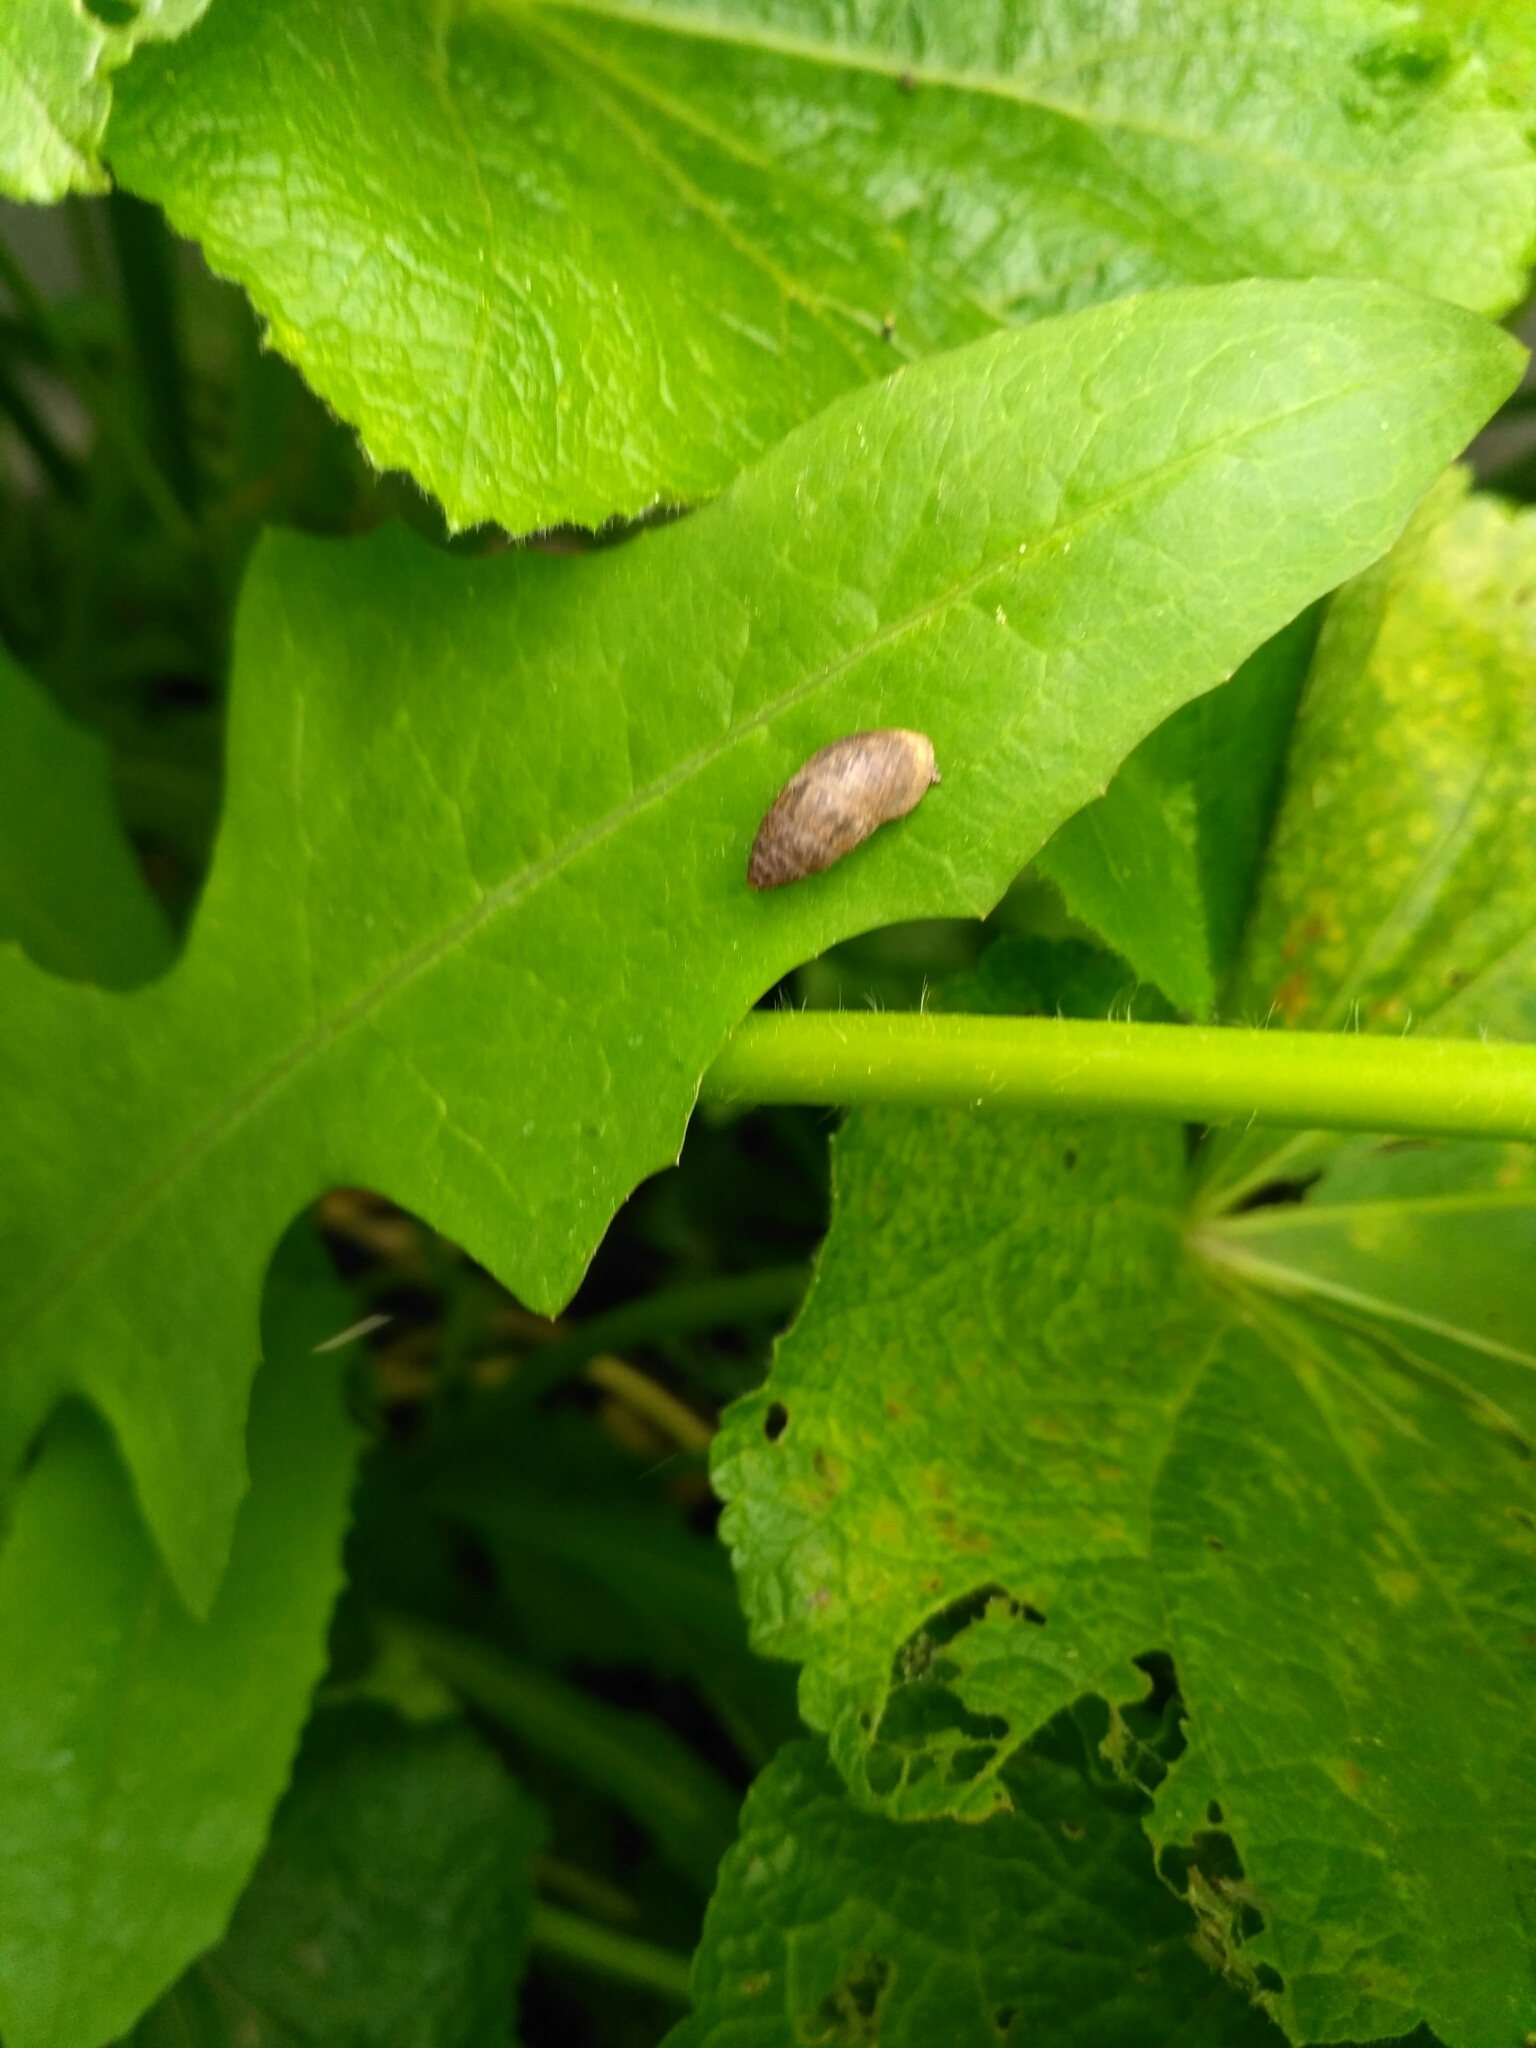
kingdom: Animalia
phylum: Mollusca
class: Gastropoda
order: Stylommatophora
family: Enidae
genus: Chondrula
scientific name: Chondrula tridens
